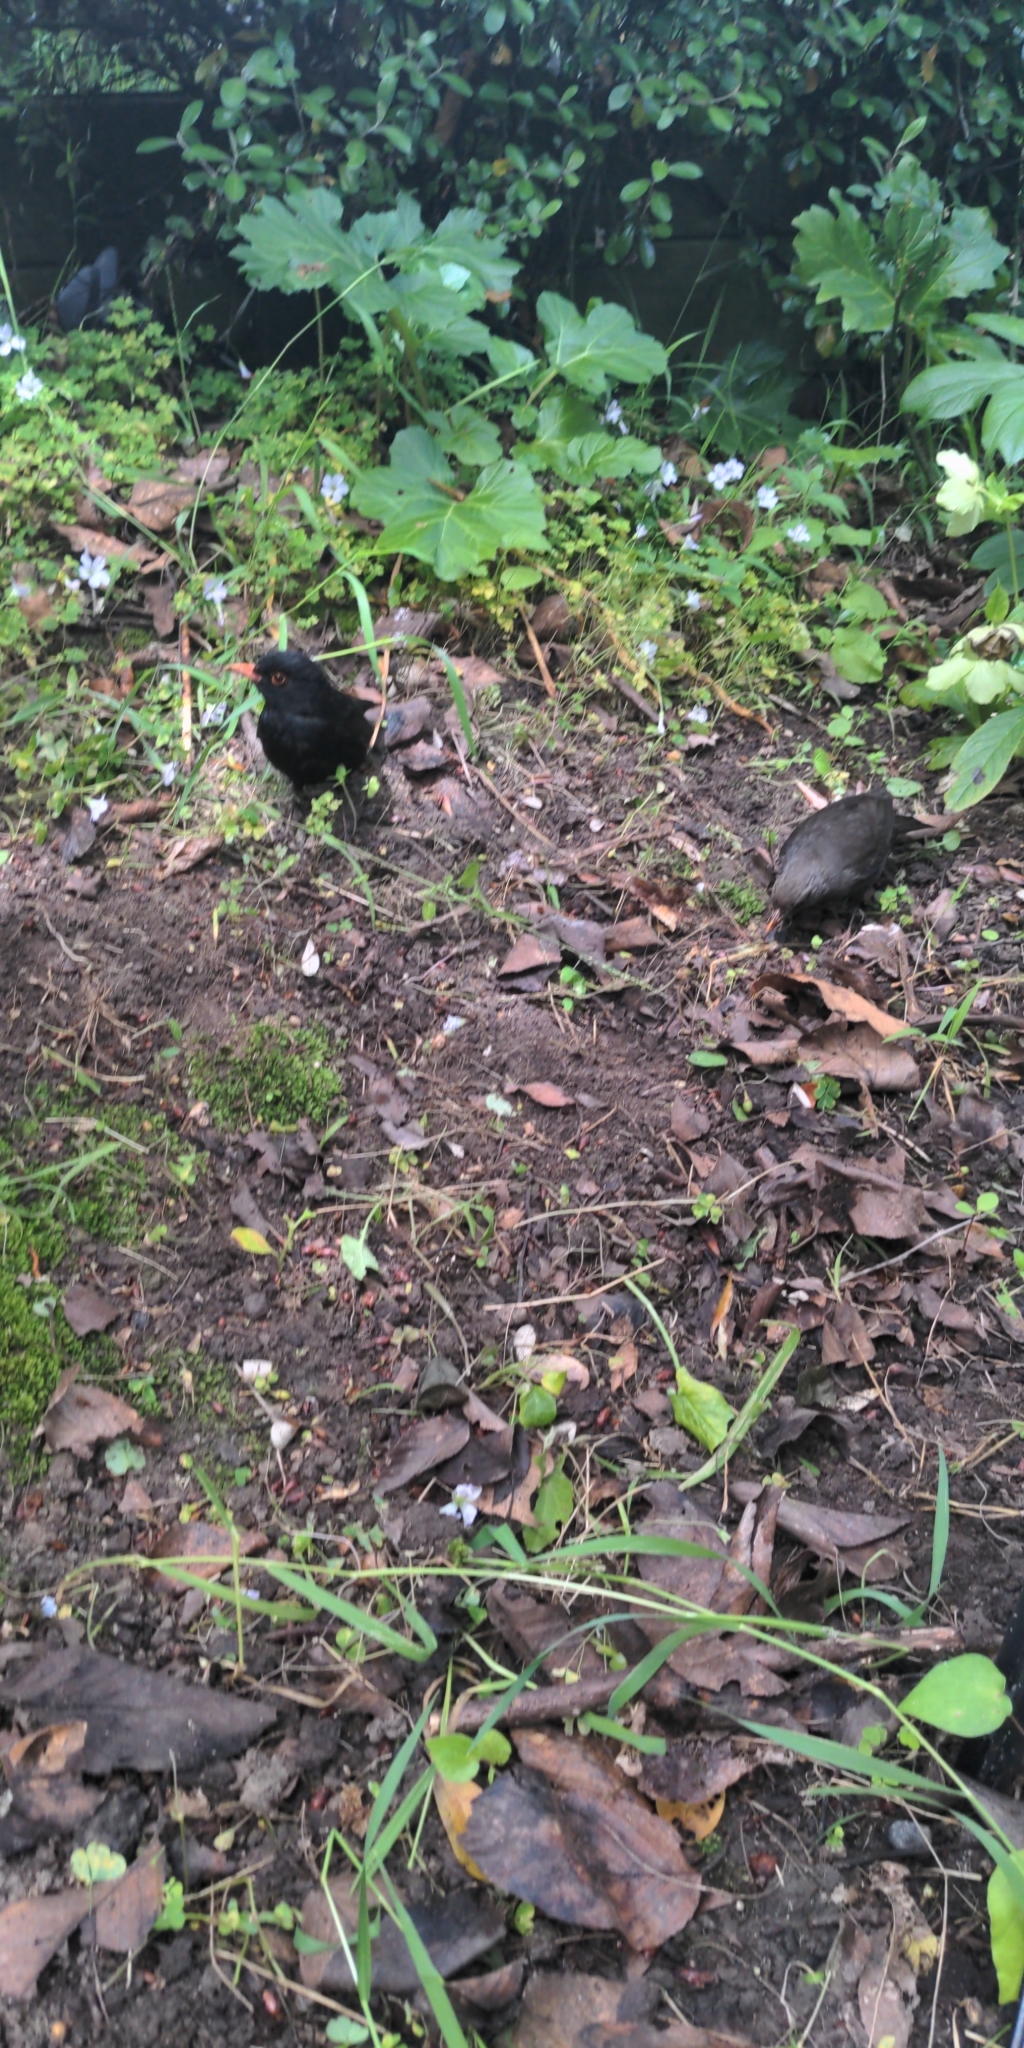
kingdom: Animalia
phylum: Chordata
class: Aves
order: Passeriformes
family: Turdidae
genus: Turdus
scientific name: Turdus merula
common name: Common blackbird
